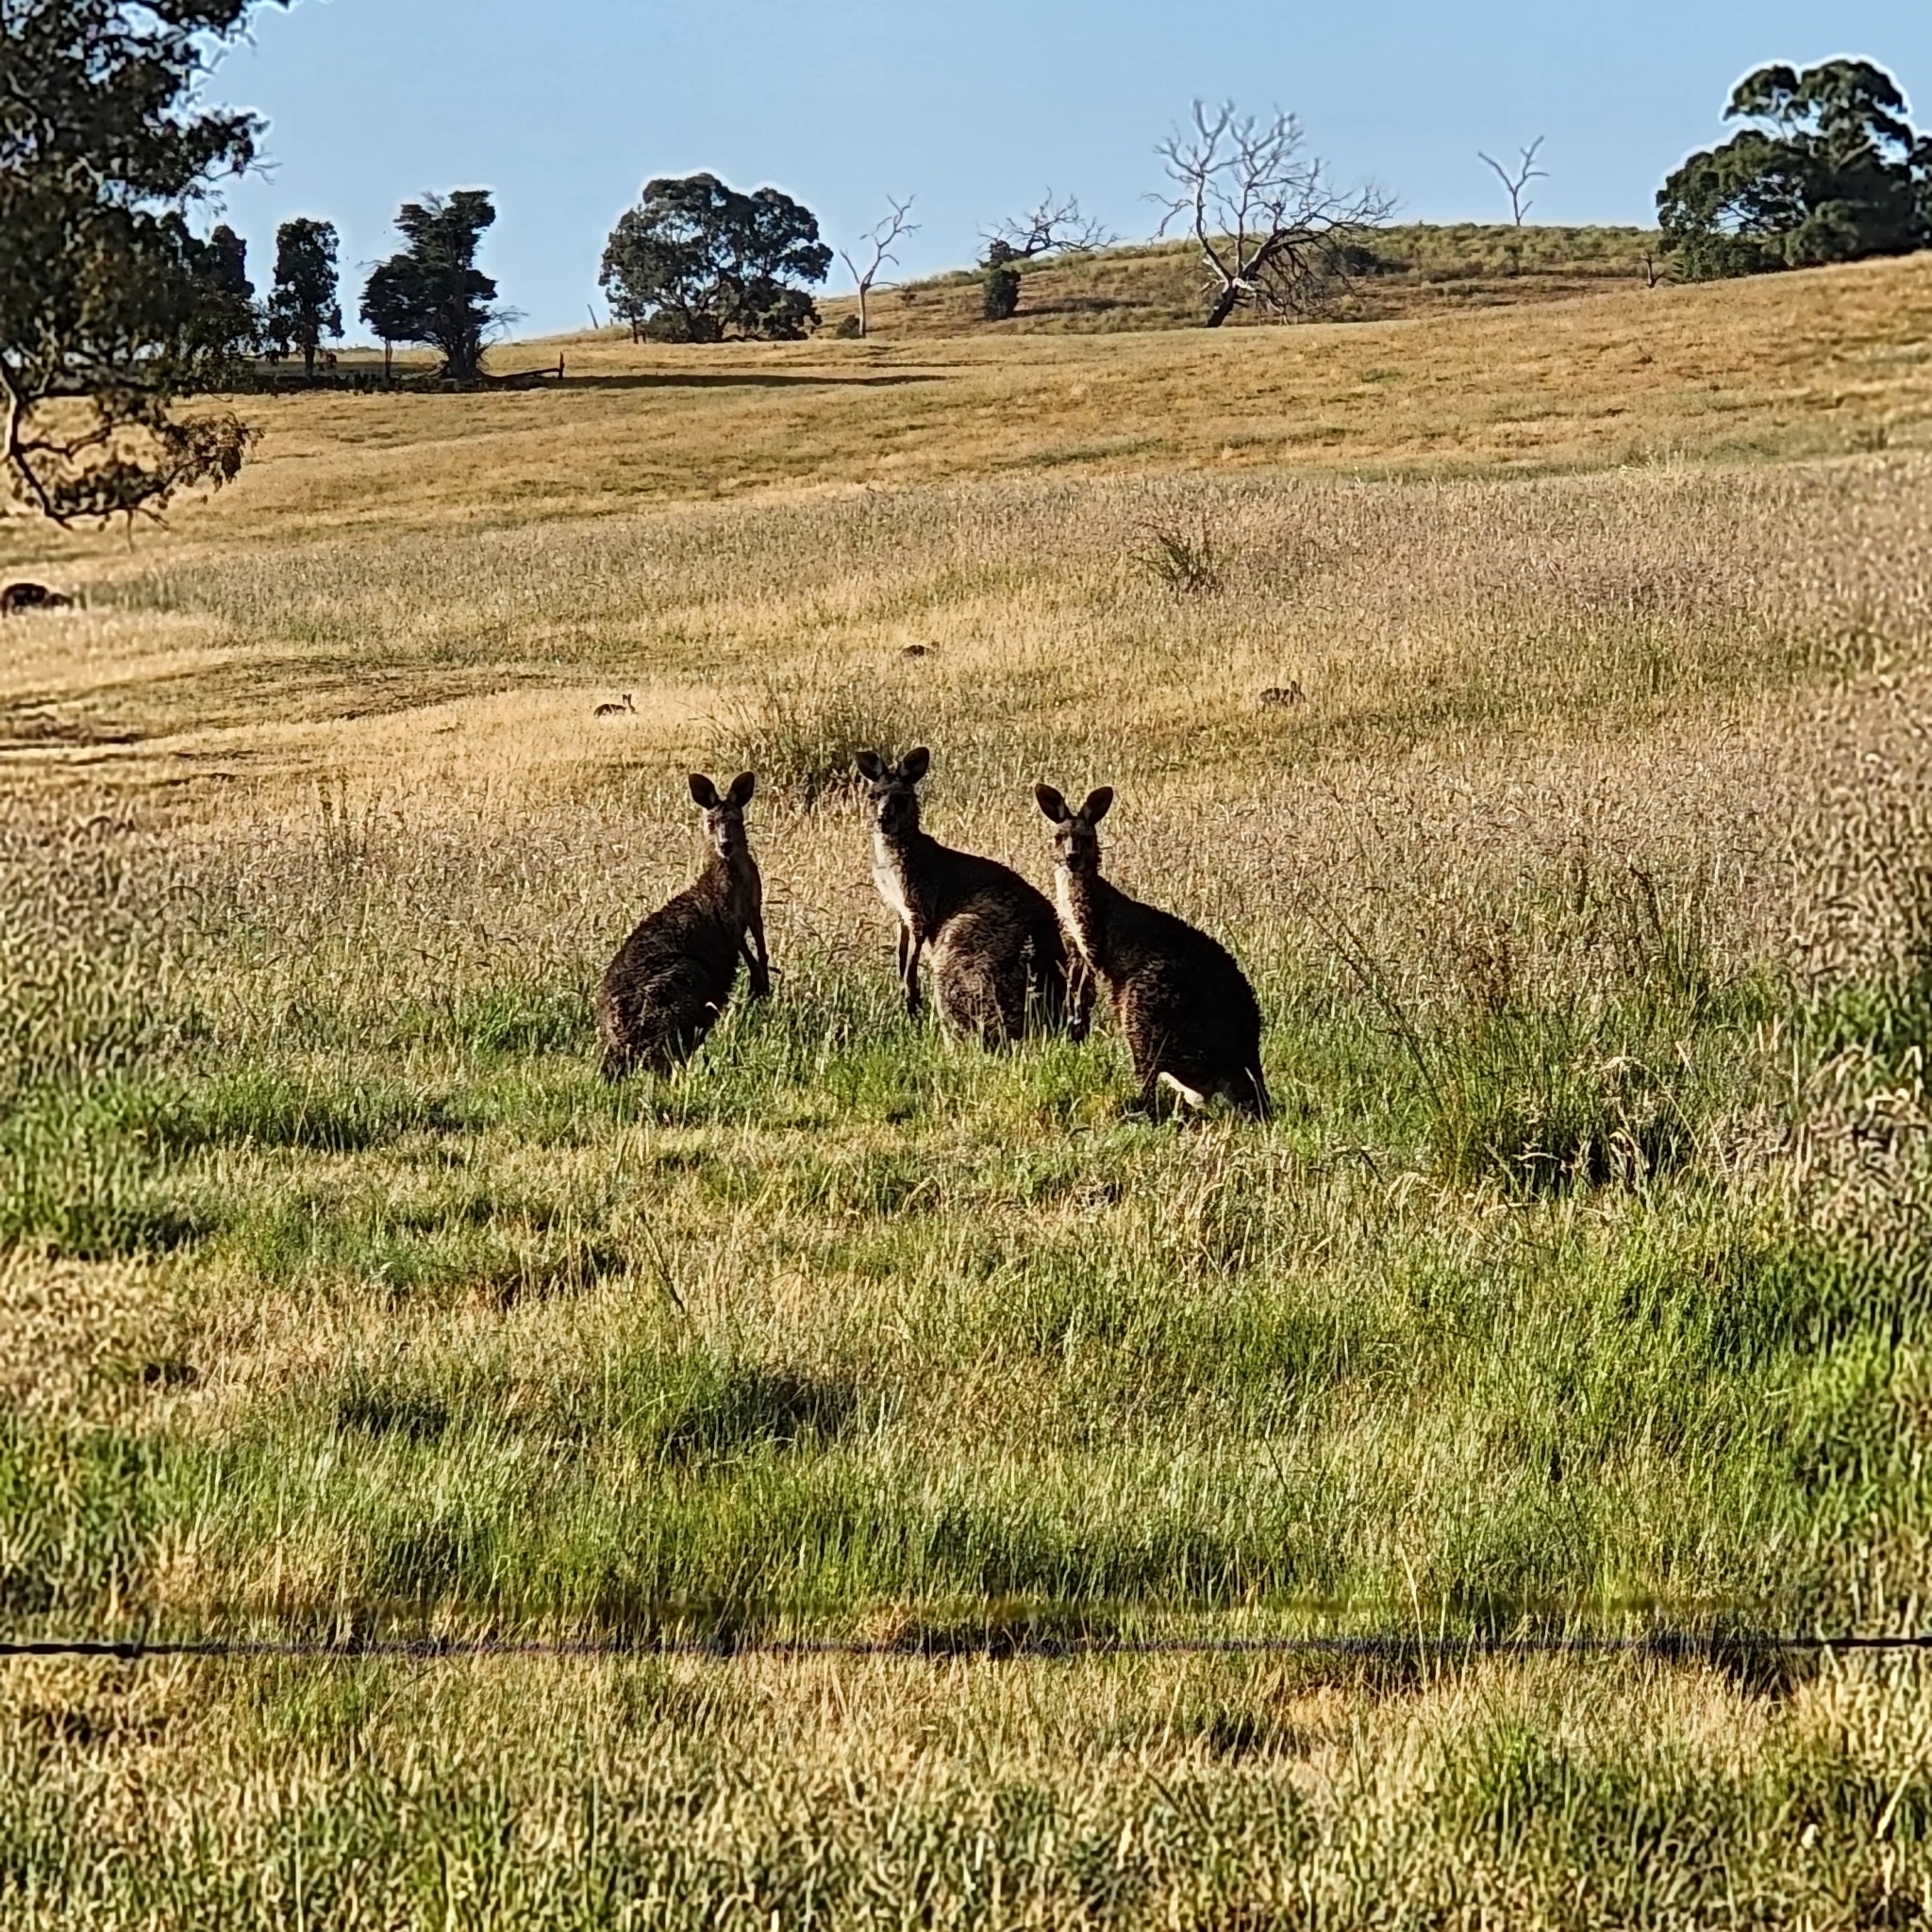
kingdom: Animalia
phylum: Chordata
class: Mammalia
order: Diprotodontia
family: Macropodidae
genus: Macropus
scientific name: Macropus giganteus
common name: Eastern grey kangaroo
